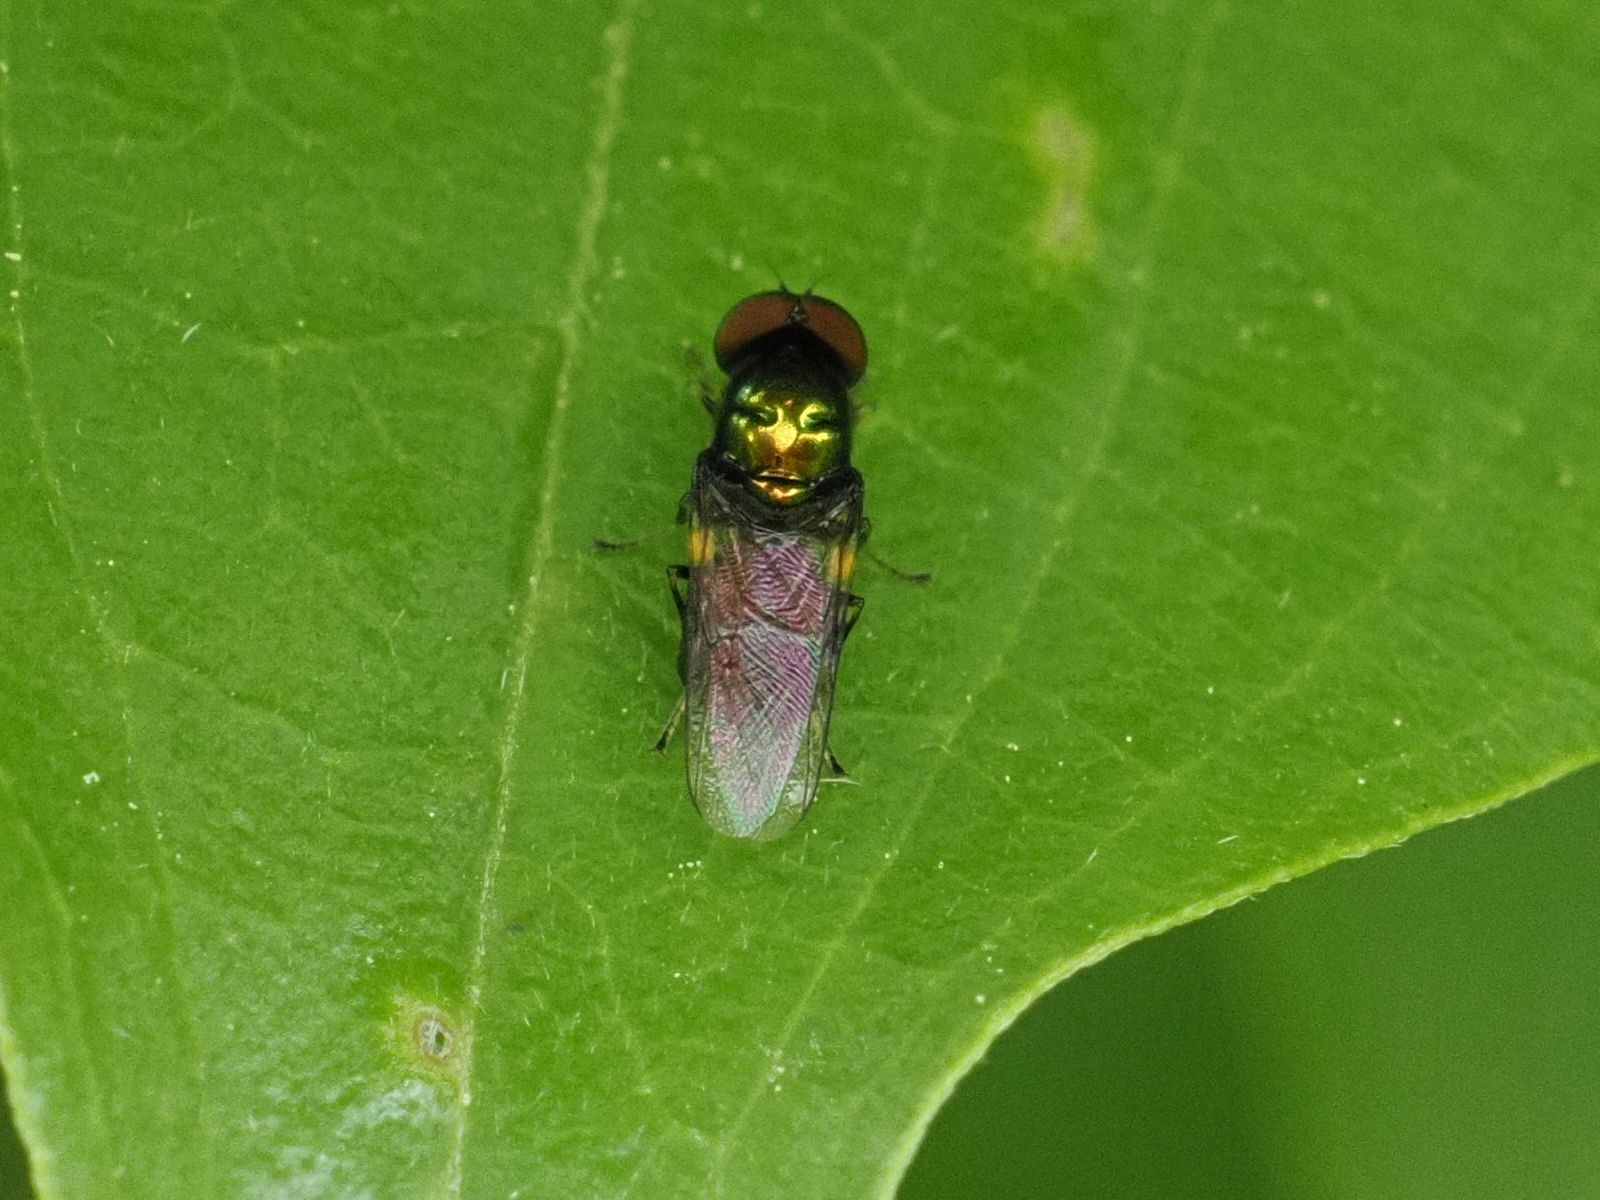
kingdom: Animalia
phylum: Arthropoda
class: Insecta
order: Diptera
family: Stratiomyidae
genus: Microchrysa
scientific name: Microchrysa polita
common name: Black-horned gem
